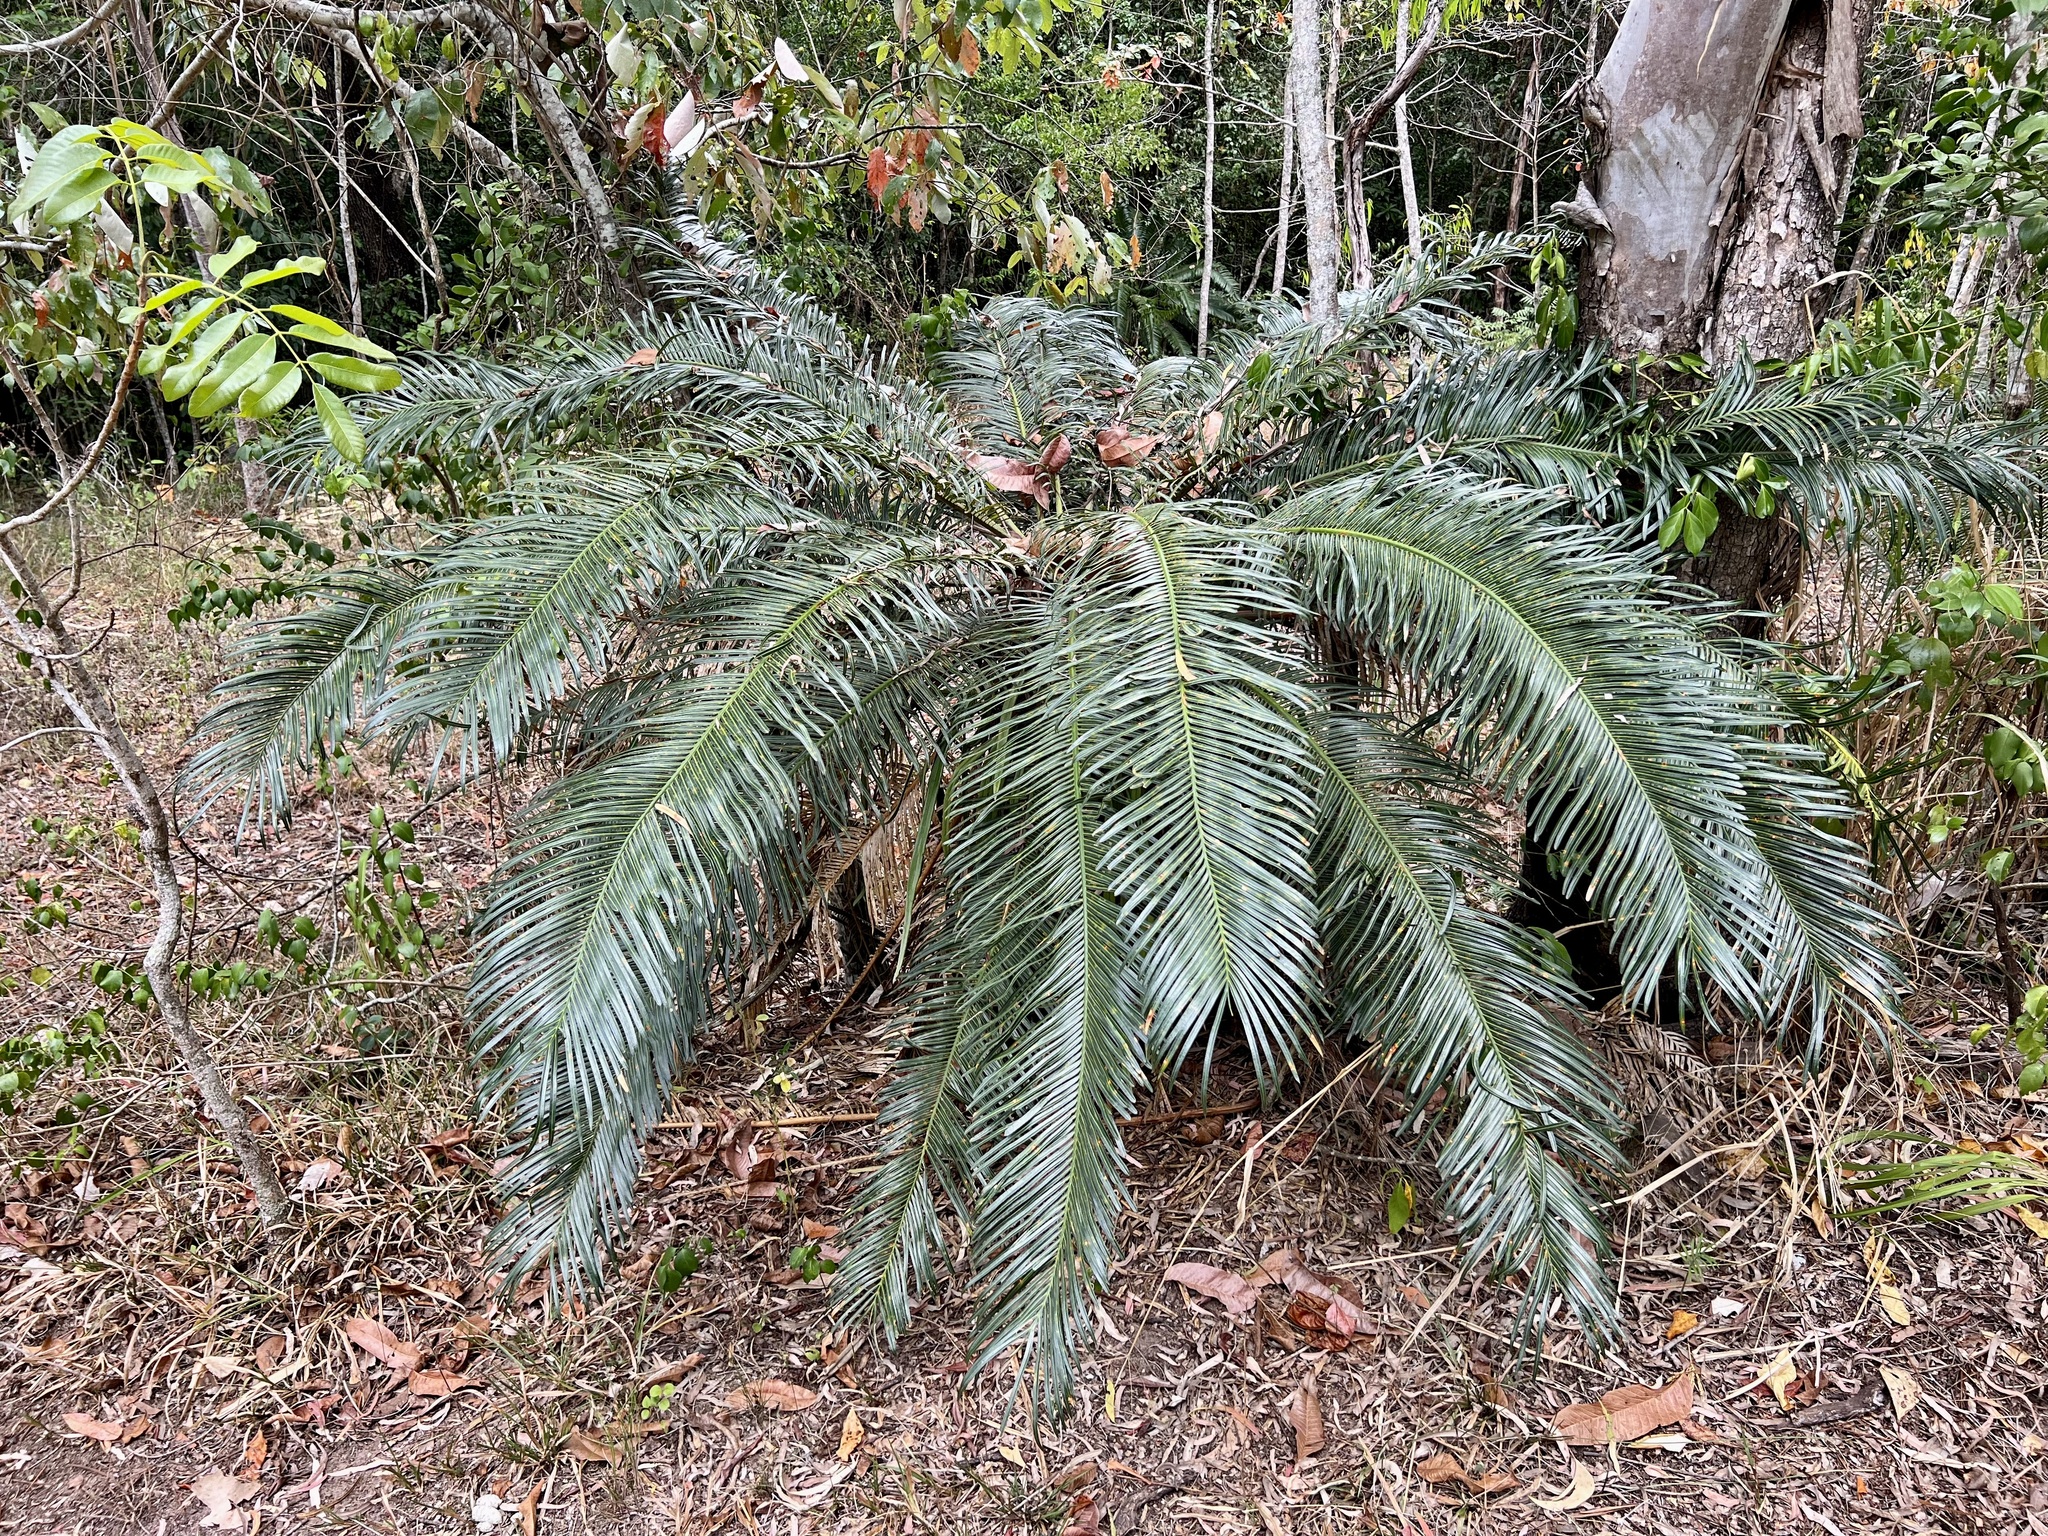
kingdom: Plantae
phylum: Tracheophyta
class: Cycadopsida
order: Cycadales
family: Cycadaceae
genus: Cycas
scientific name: Cycas media
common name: Queensland cycas
